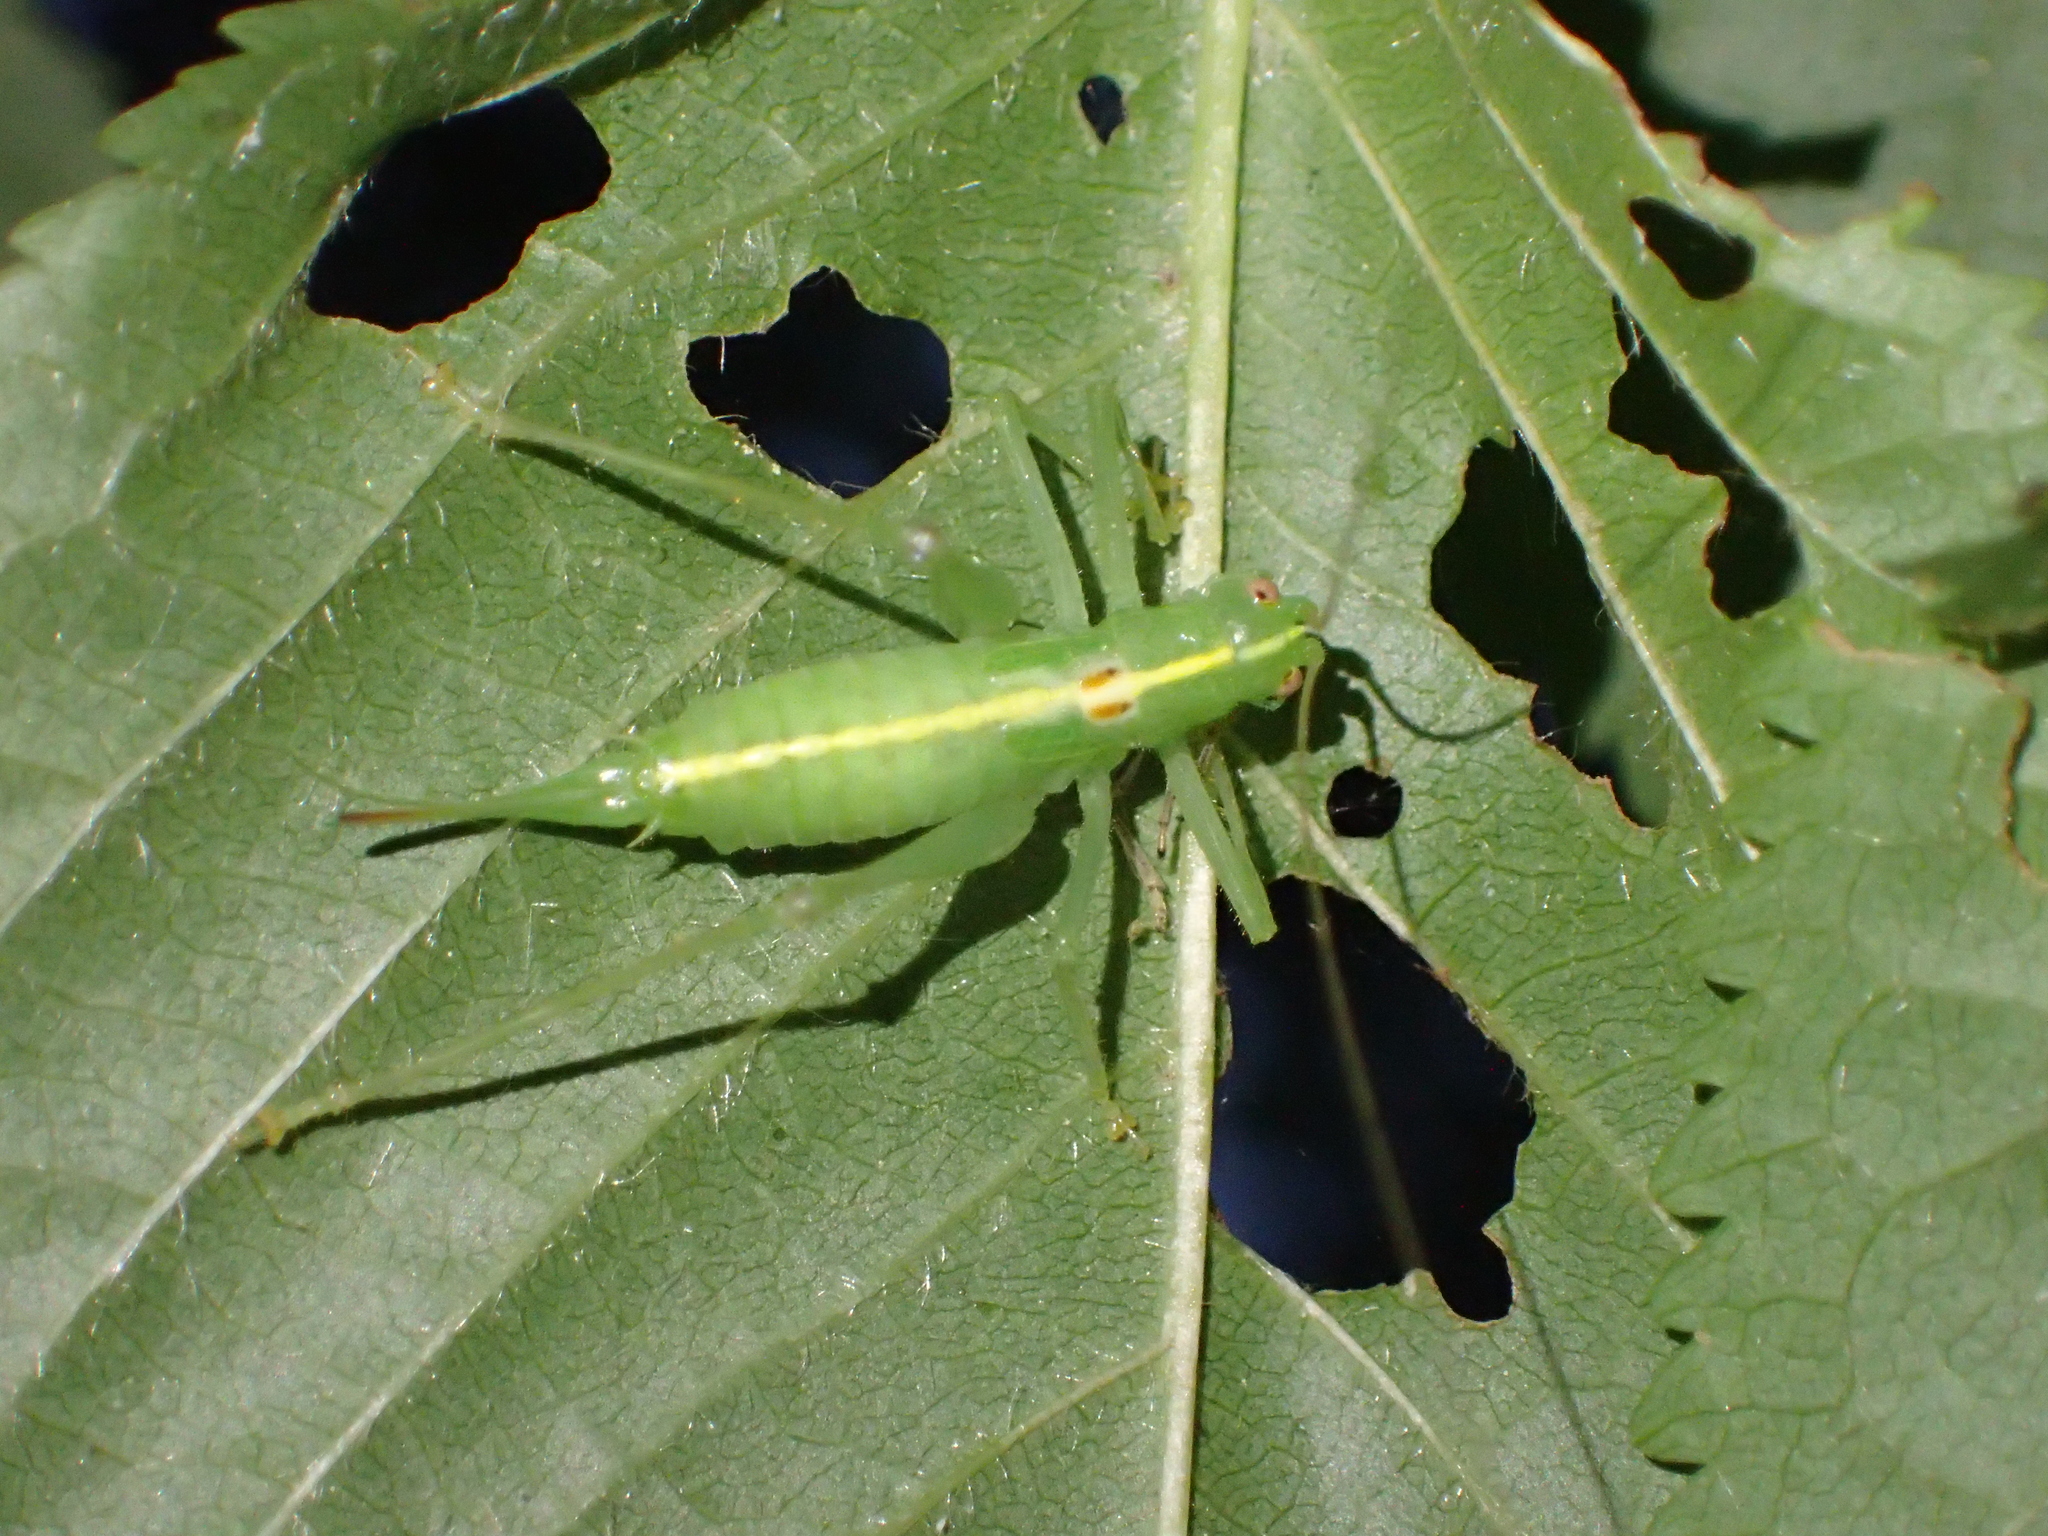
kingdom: Animalia
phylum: Arthropoda
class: Insecta
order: Orthoptera
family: Tettigoniidae
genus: Meconema
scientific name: Meconema meridionale
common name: Southern oak bush-cricket
